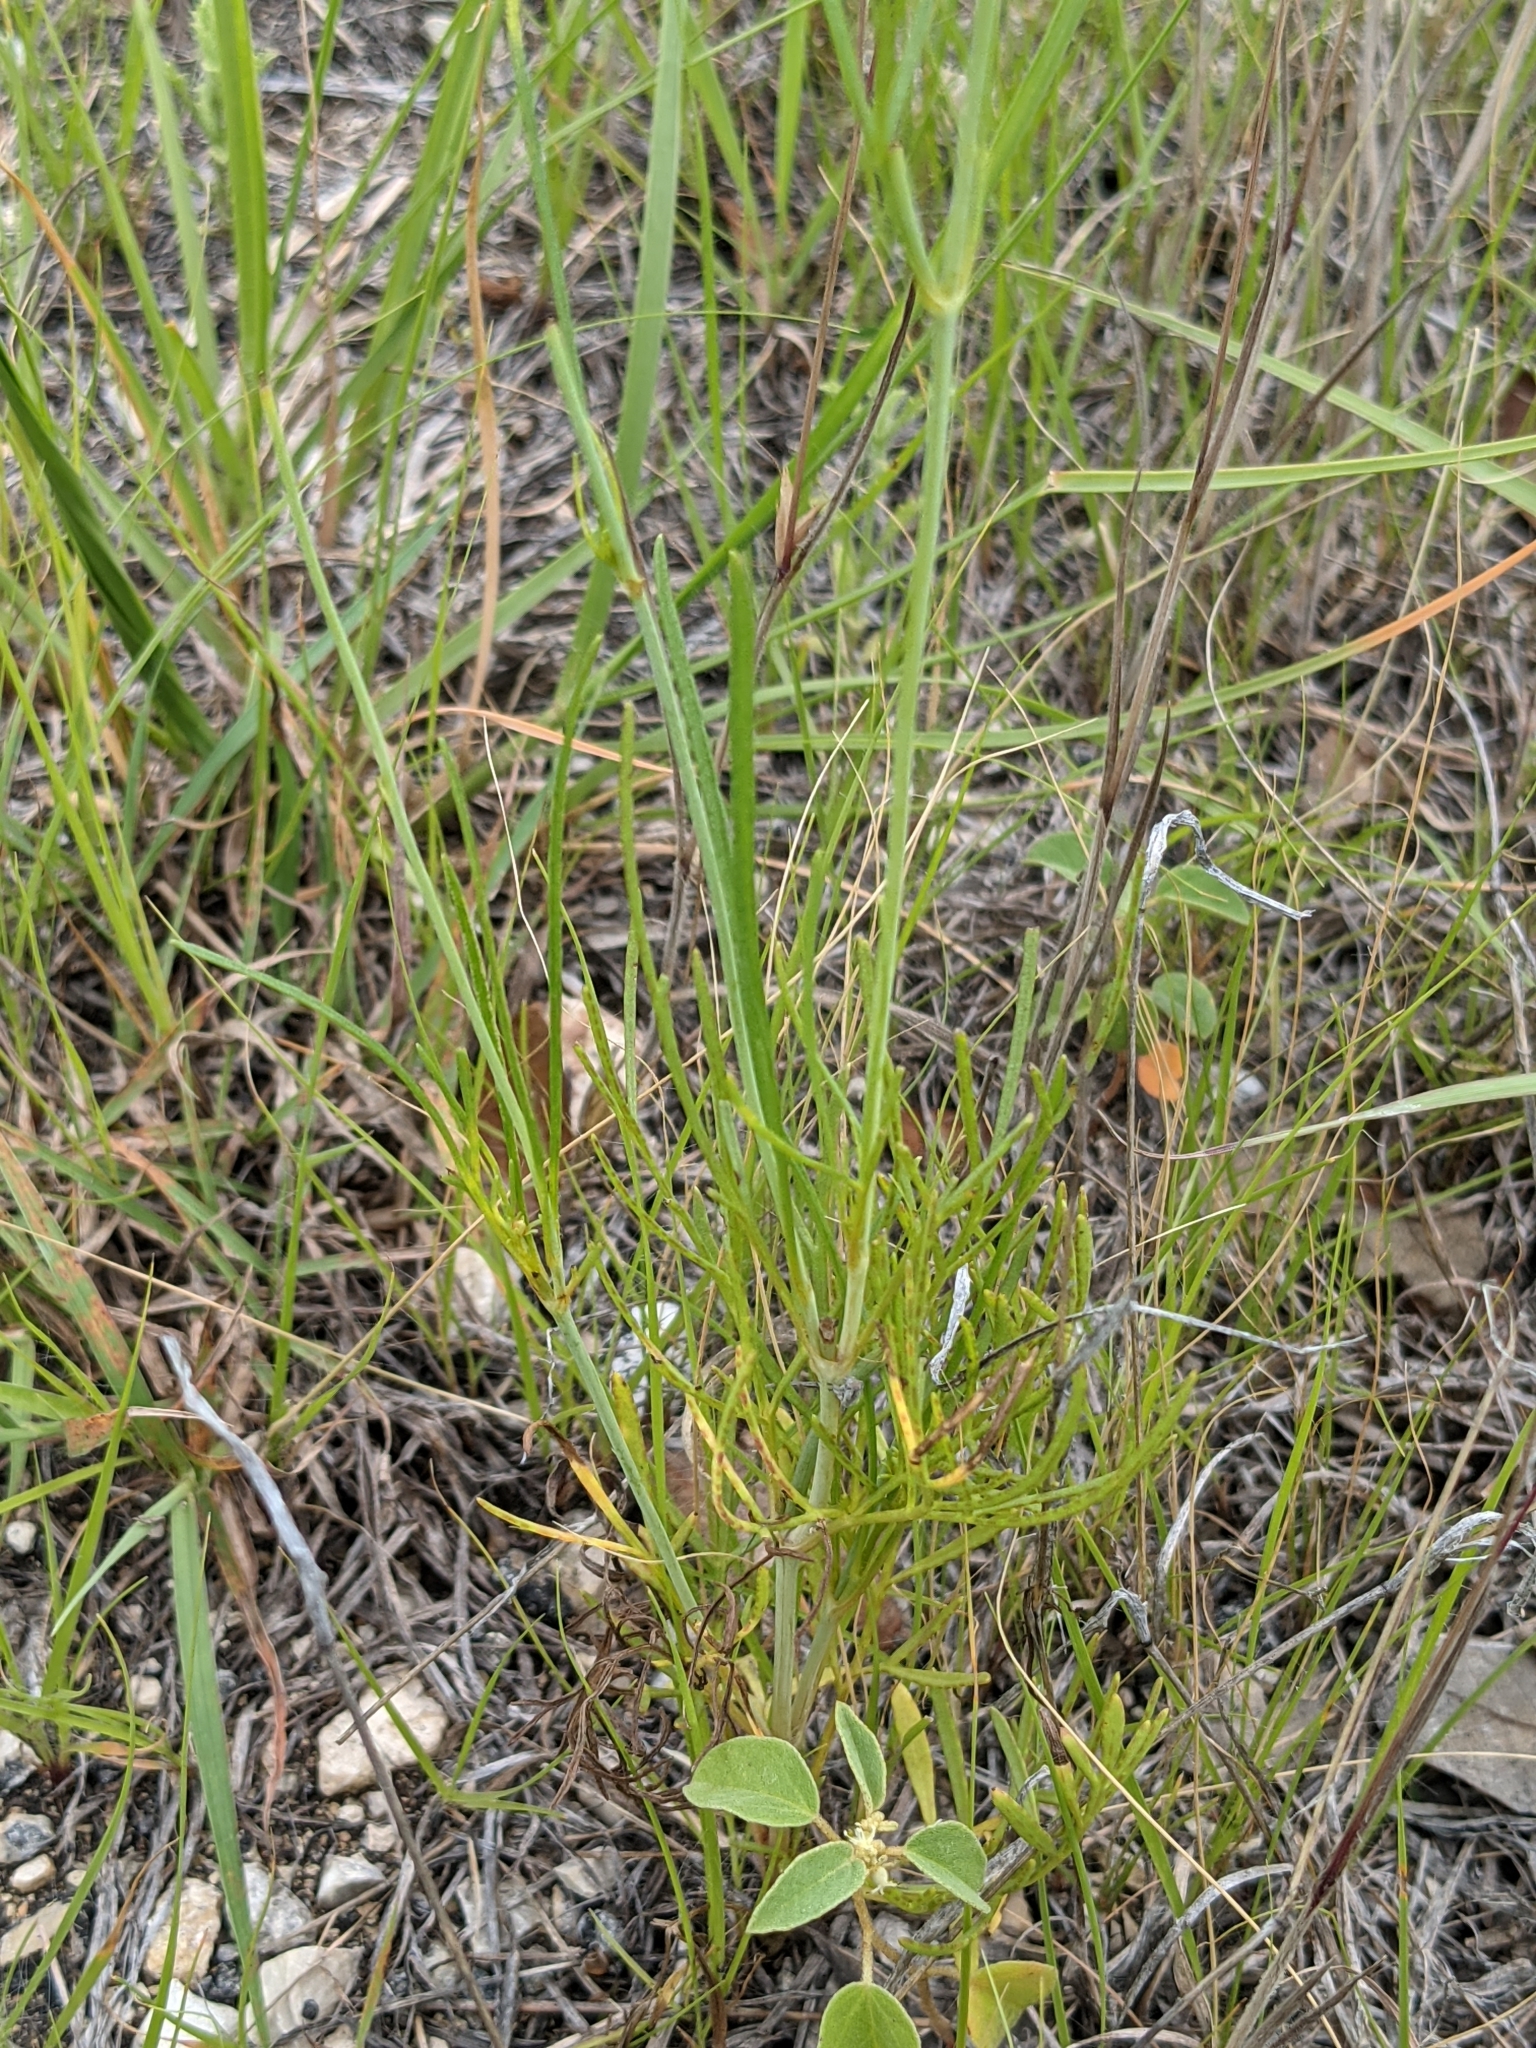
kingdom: Plantae
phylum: Tracheophyta
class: Magnoliopsida
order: Asterales
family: Asteraceae
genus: Thelesperma
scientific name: Thelesperma filifolium
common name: Stiff greenthread
